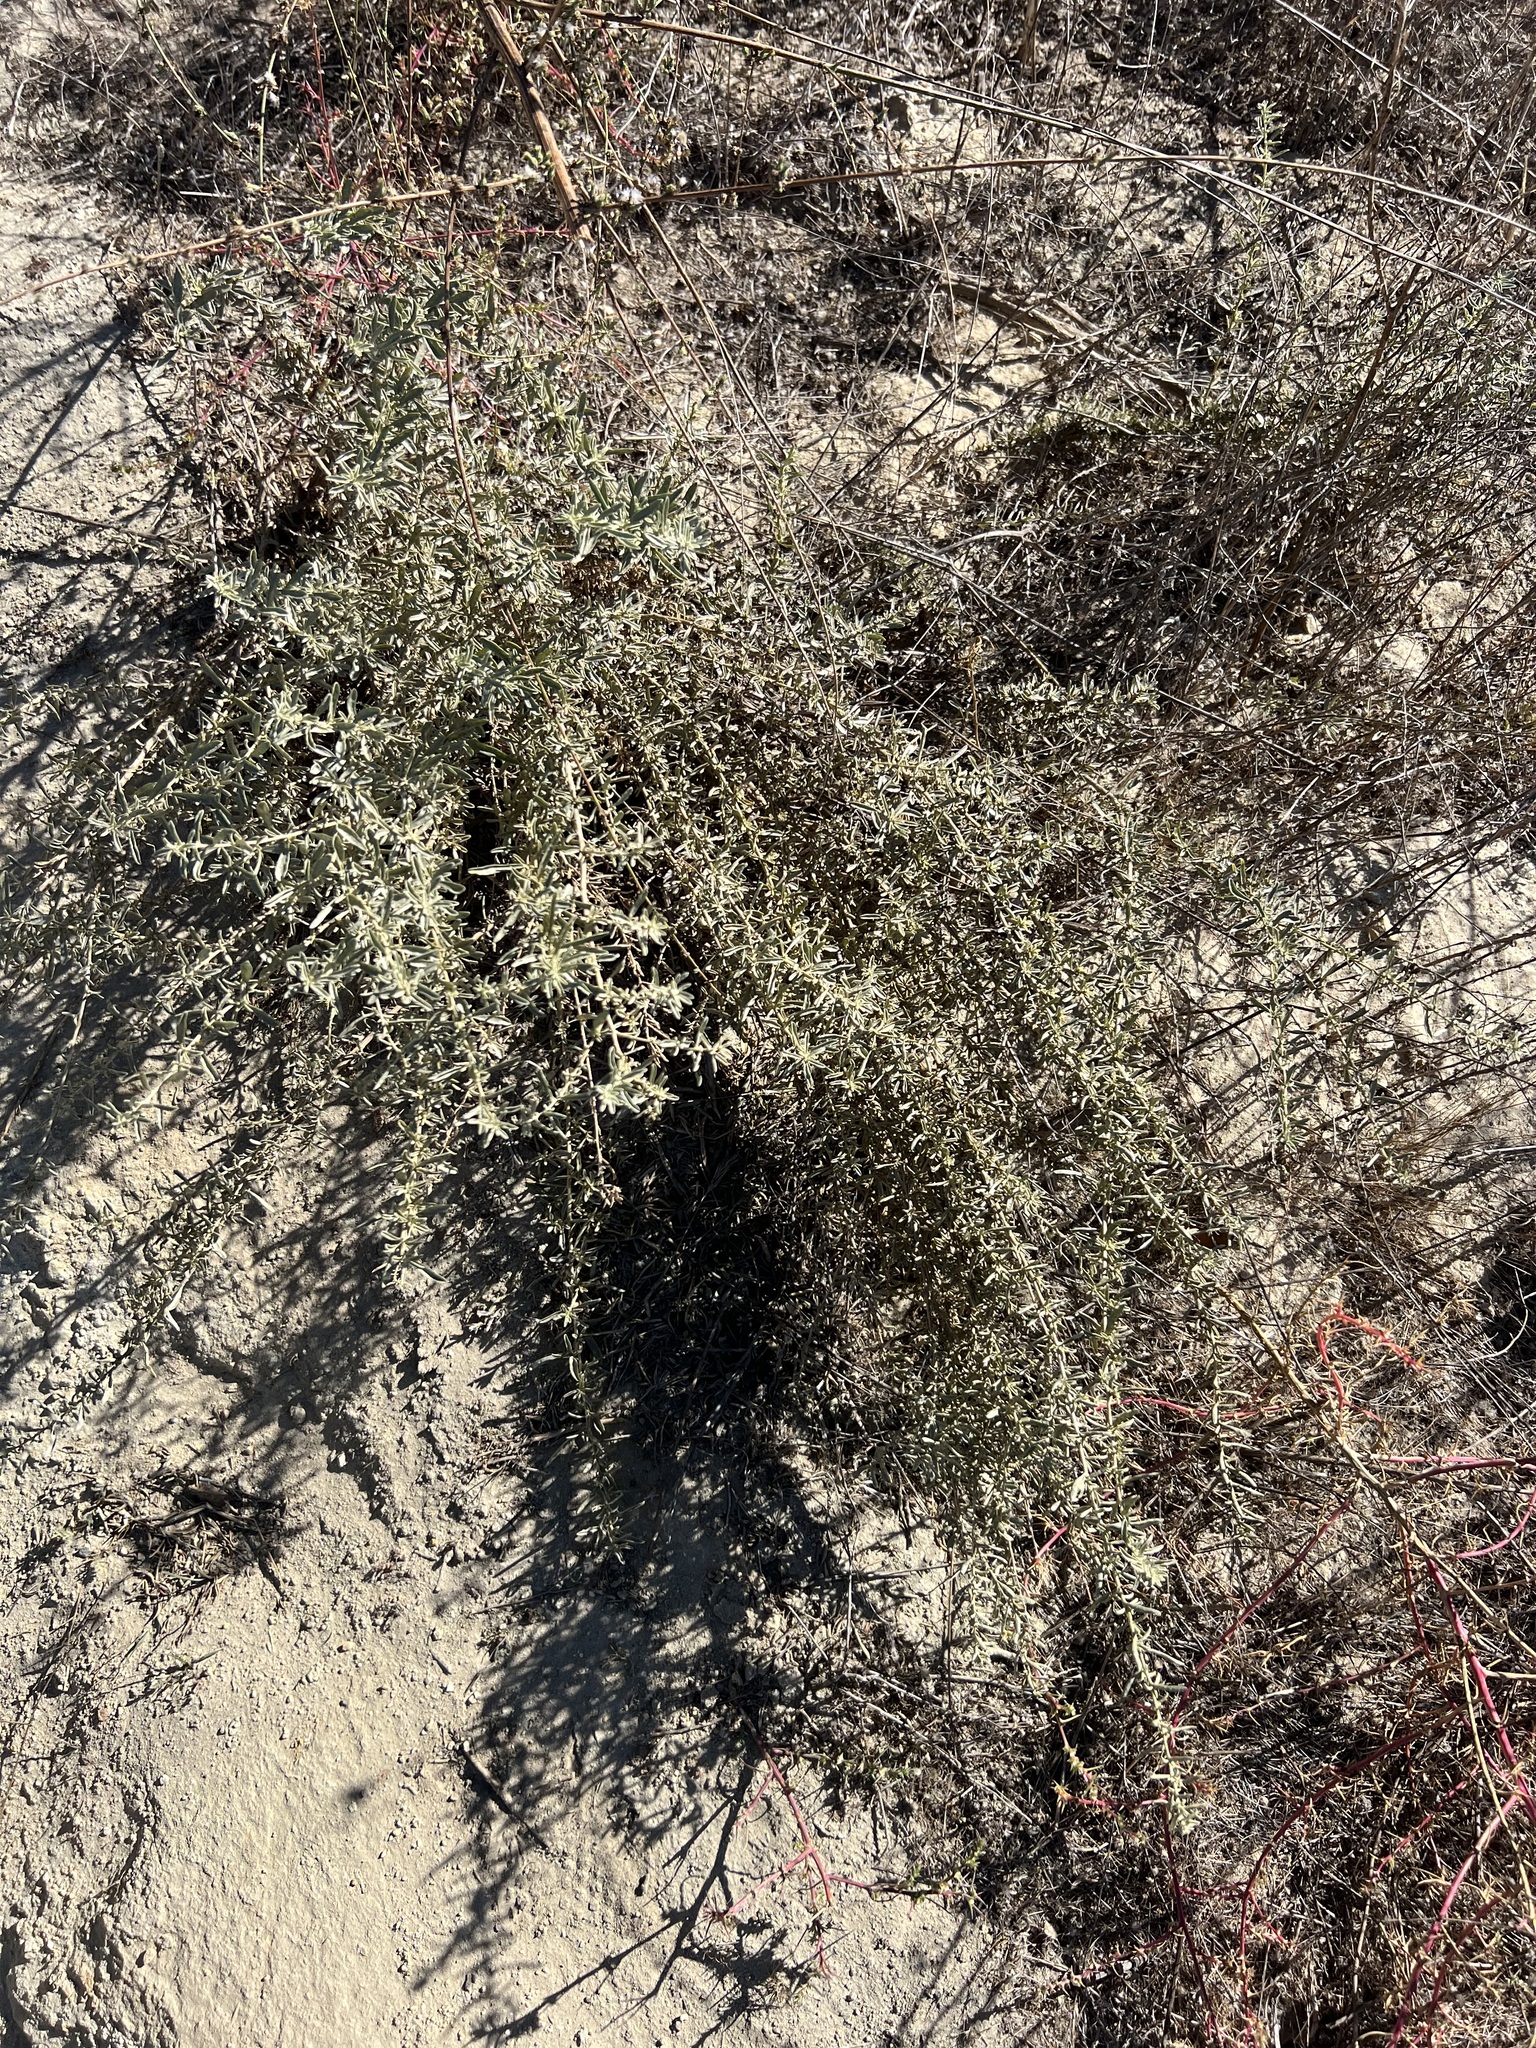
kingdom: Plantae
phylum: Tracheophyta
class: Magnoliopsida
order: Caryophyllales
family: Amaranthaceae
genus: Atriplex
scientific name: Atriplex canescens
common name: Four-wing saltbush
